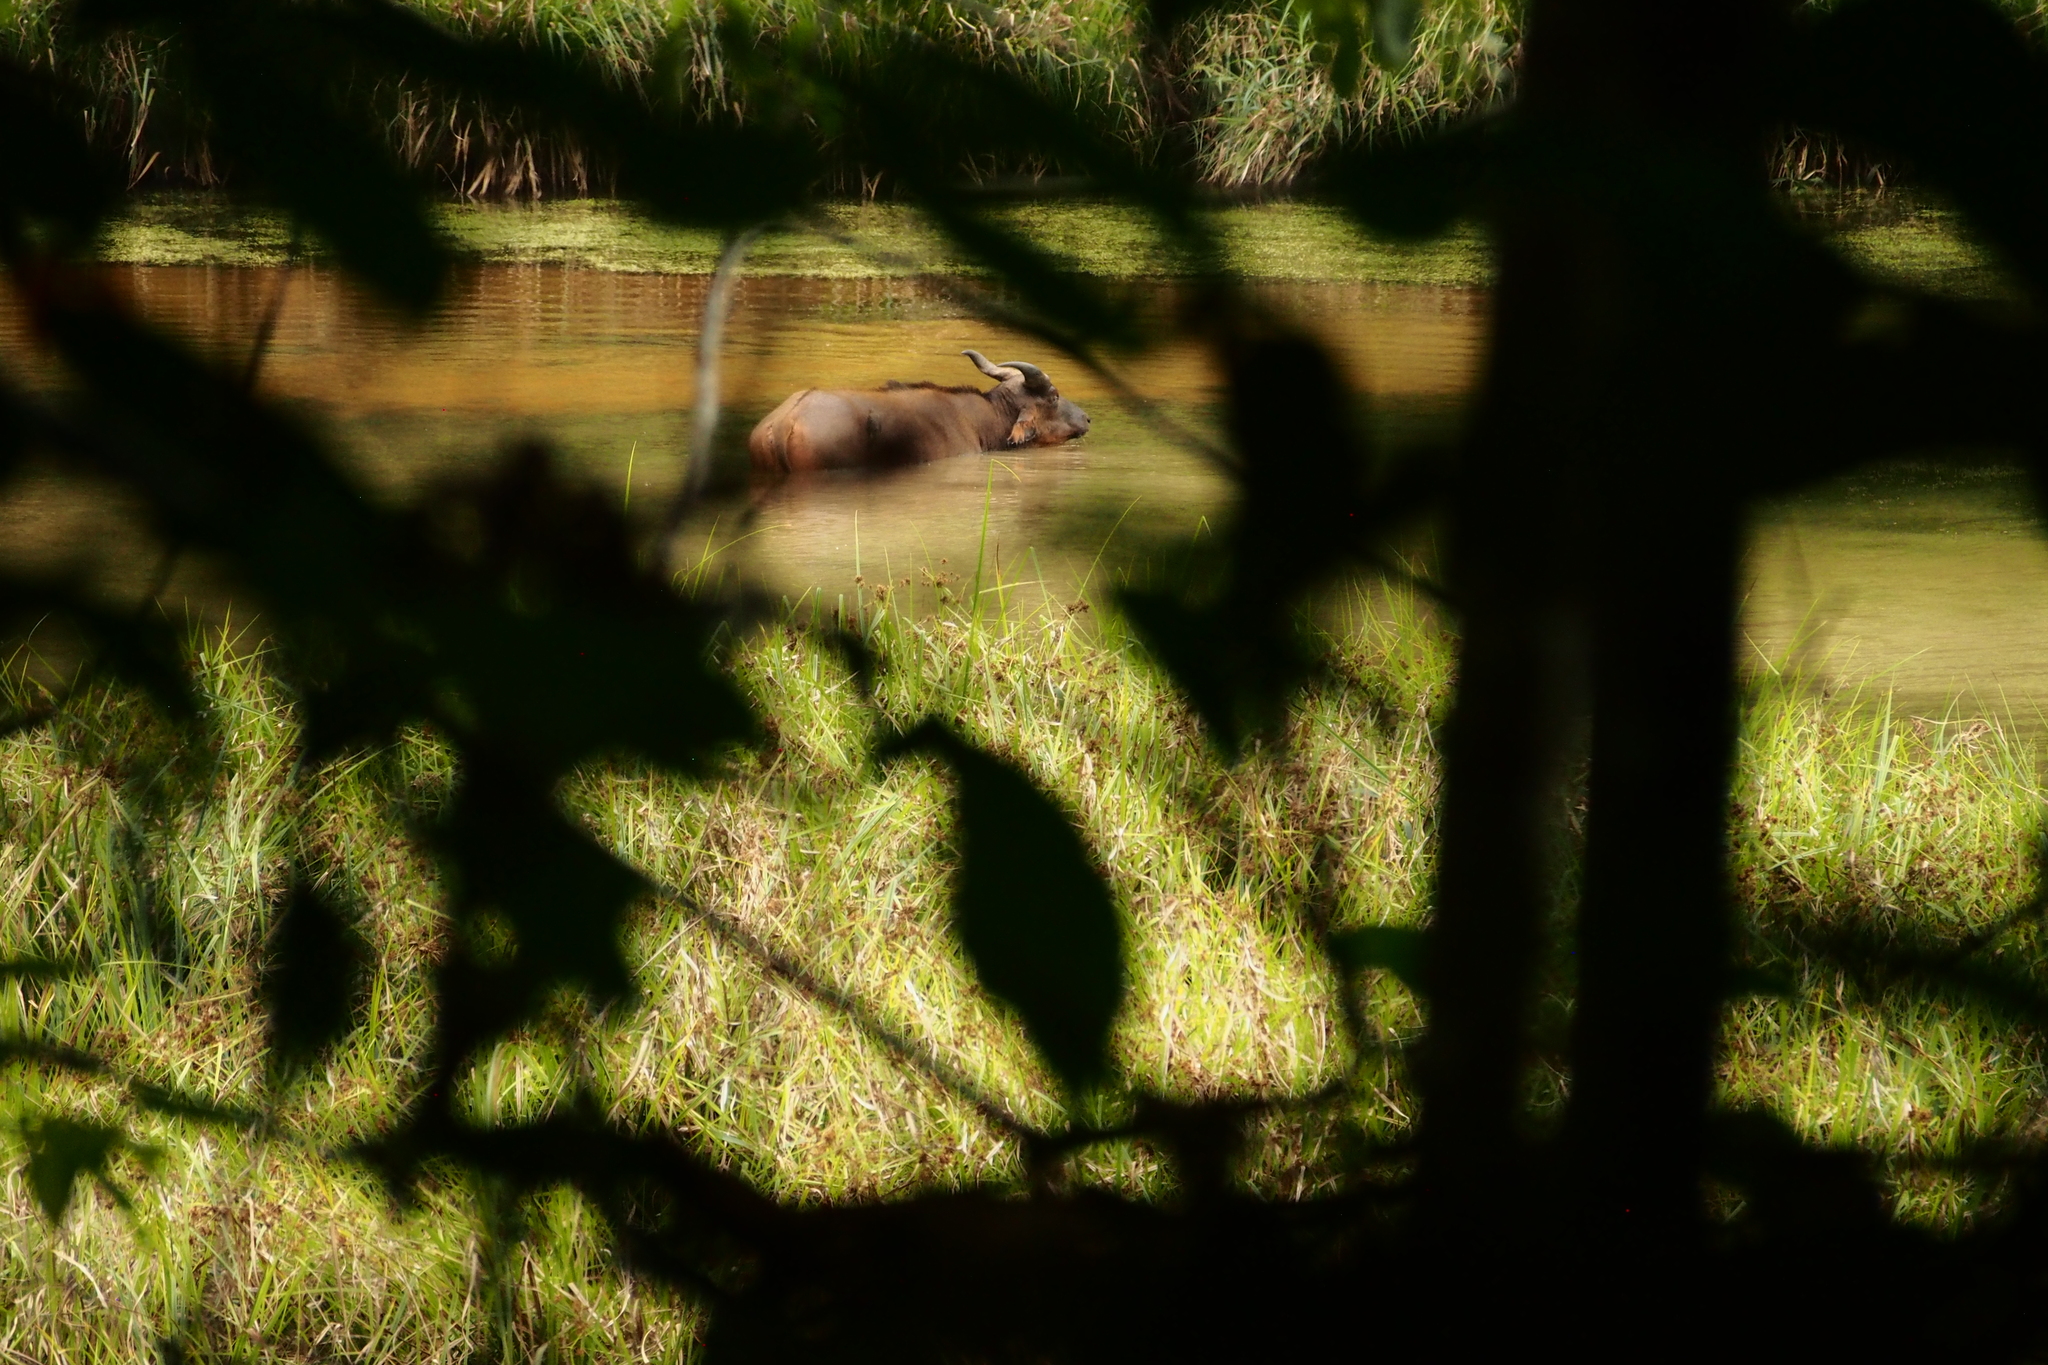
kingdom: Animalia
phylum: Chordata
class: Mammalia
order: Artiodactyla
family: Bovidae
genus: Syncerus
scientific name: Syncerus caffer
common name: African buffalo
